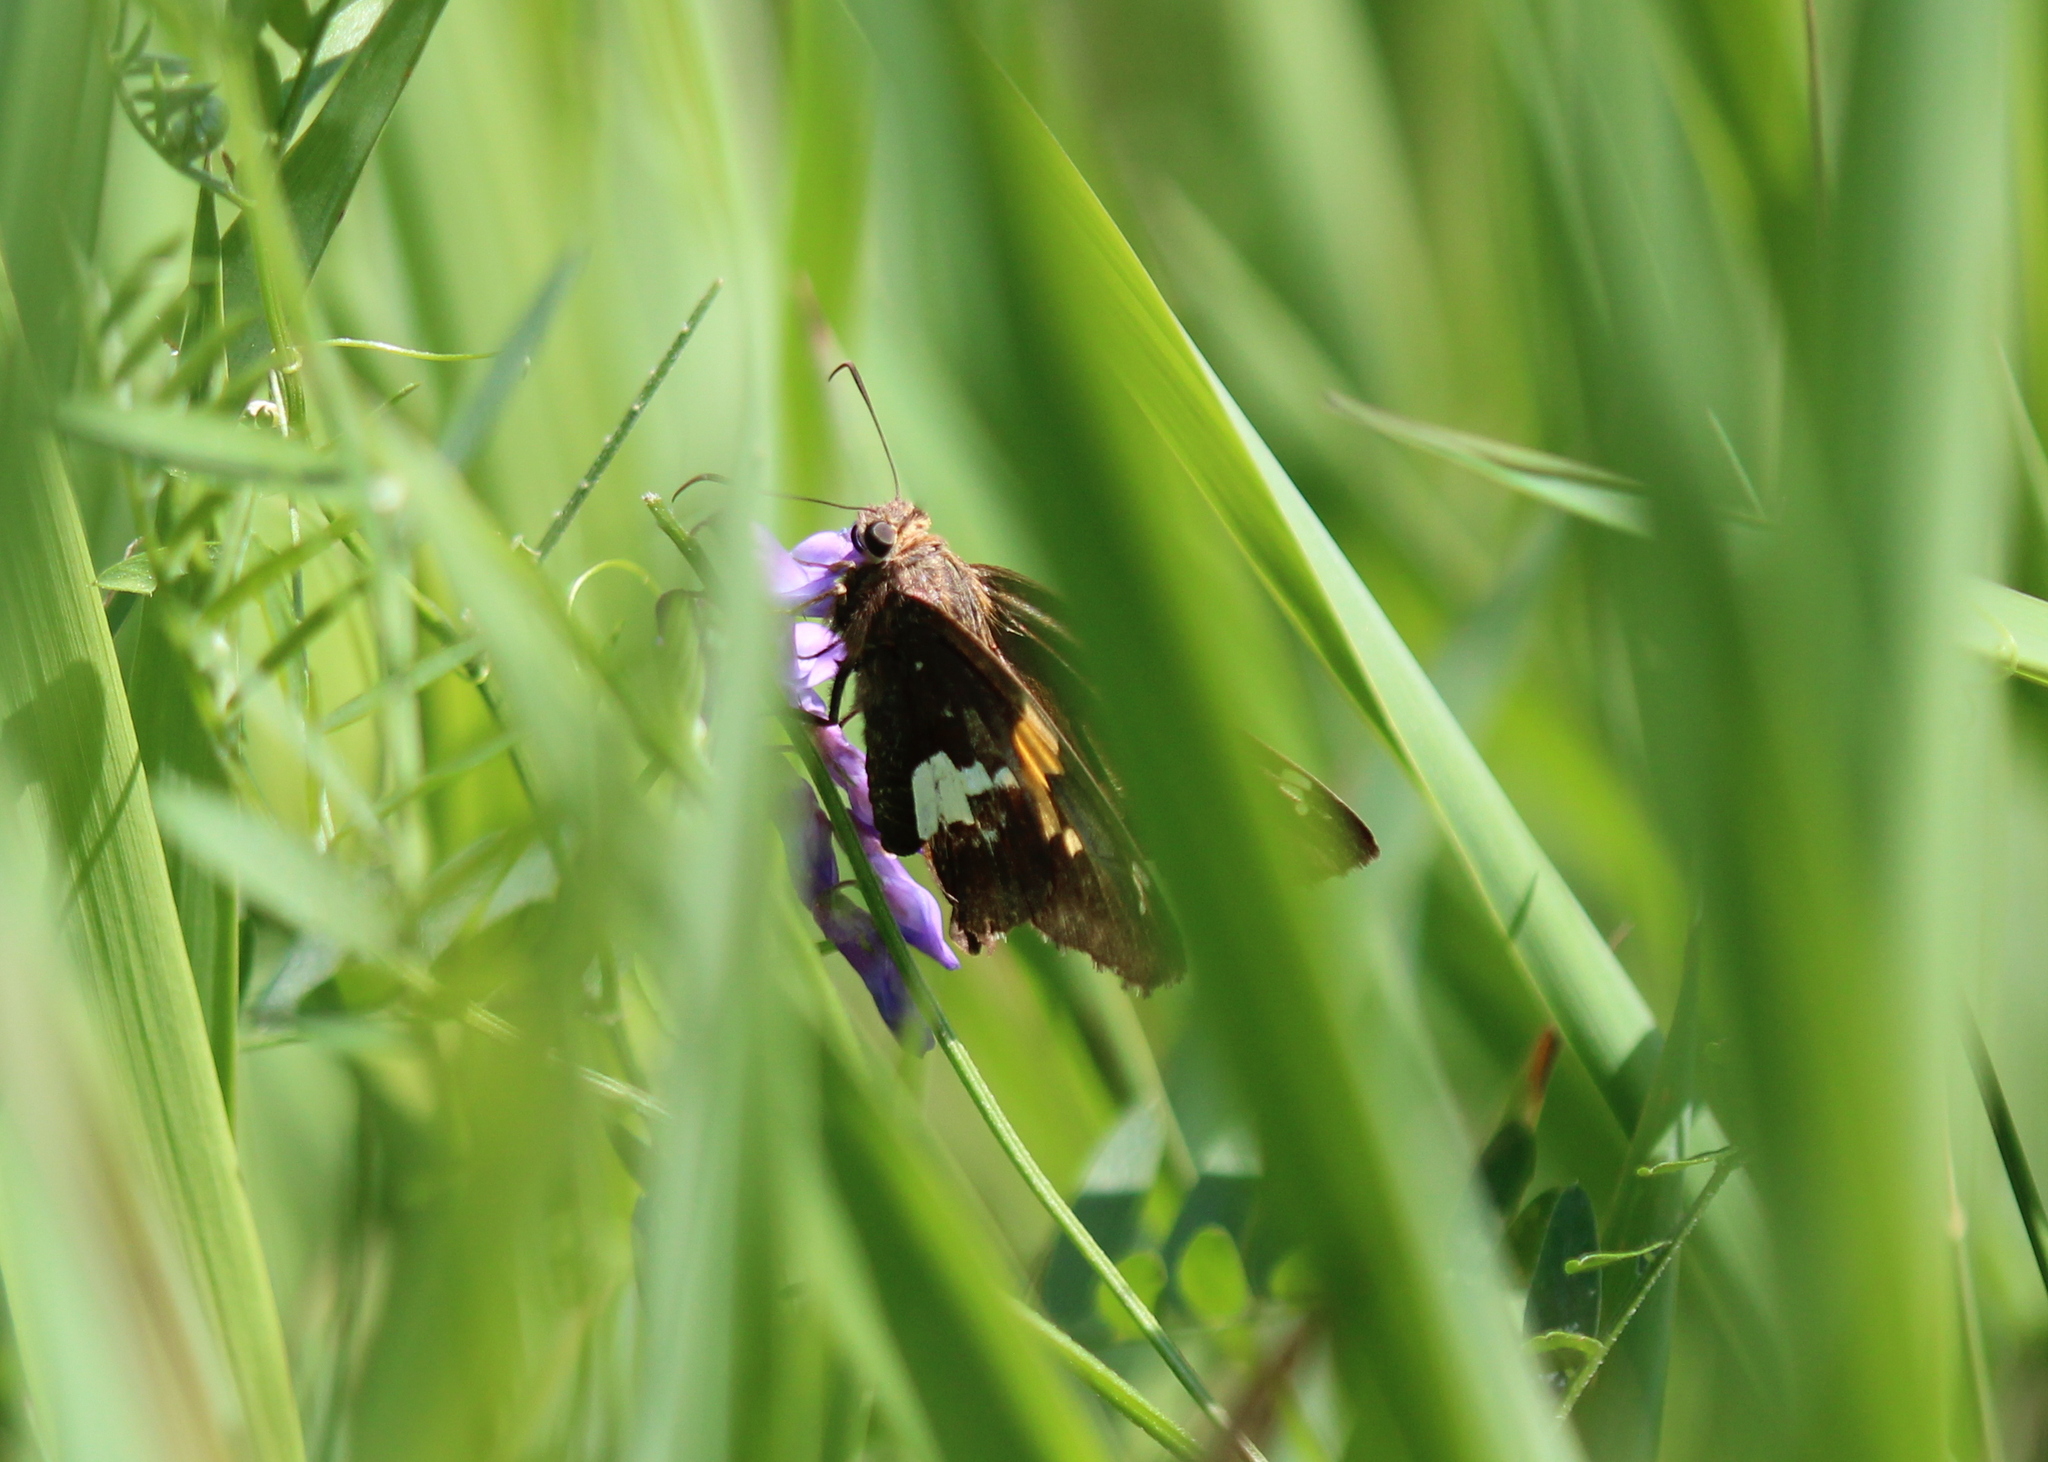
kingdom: Animalia
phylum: Arthropoda
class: Insecta
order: Lepidoptera
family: Hesperiidae
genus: Epargyreus
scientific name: Epargyreus clarus
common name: Silver-spotted skipper
